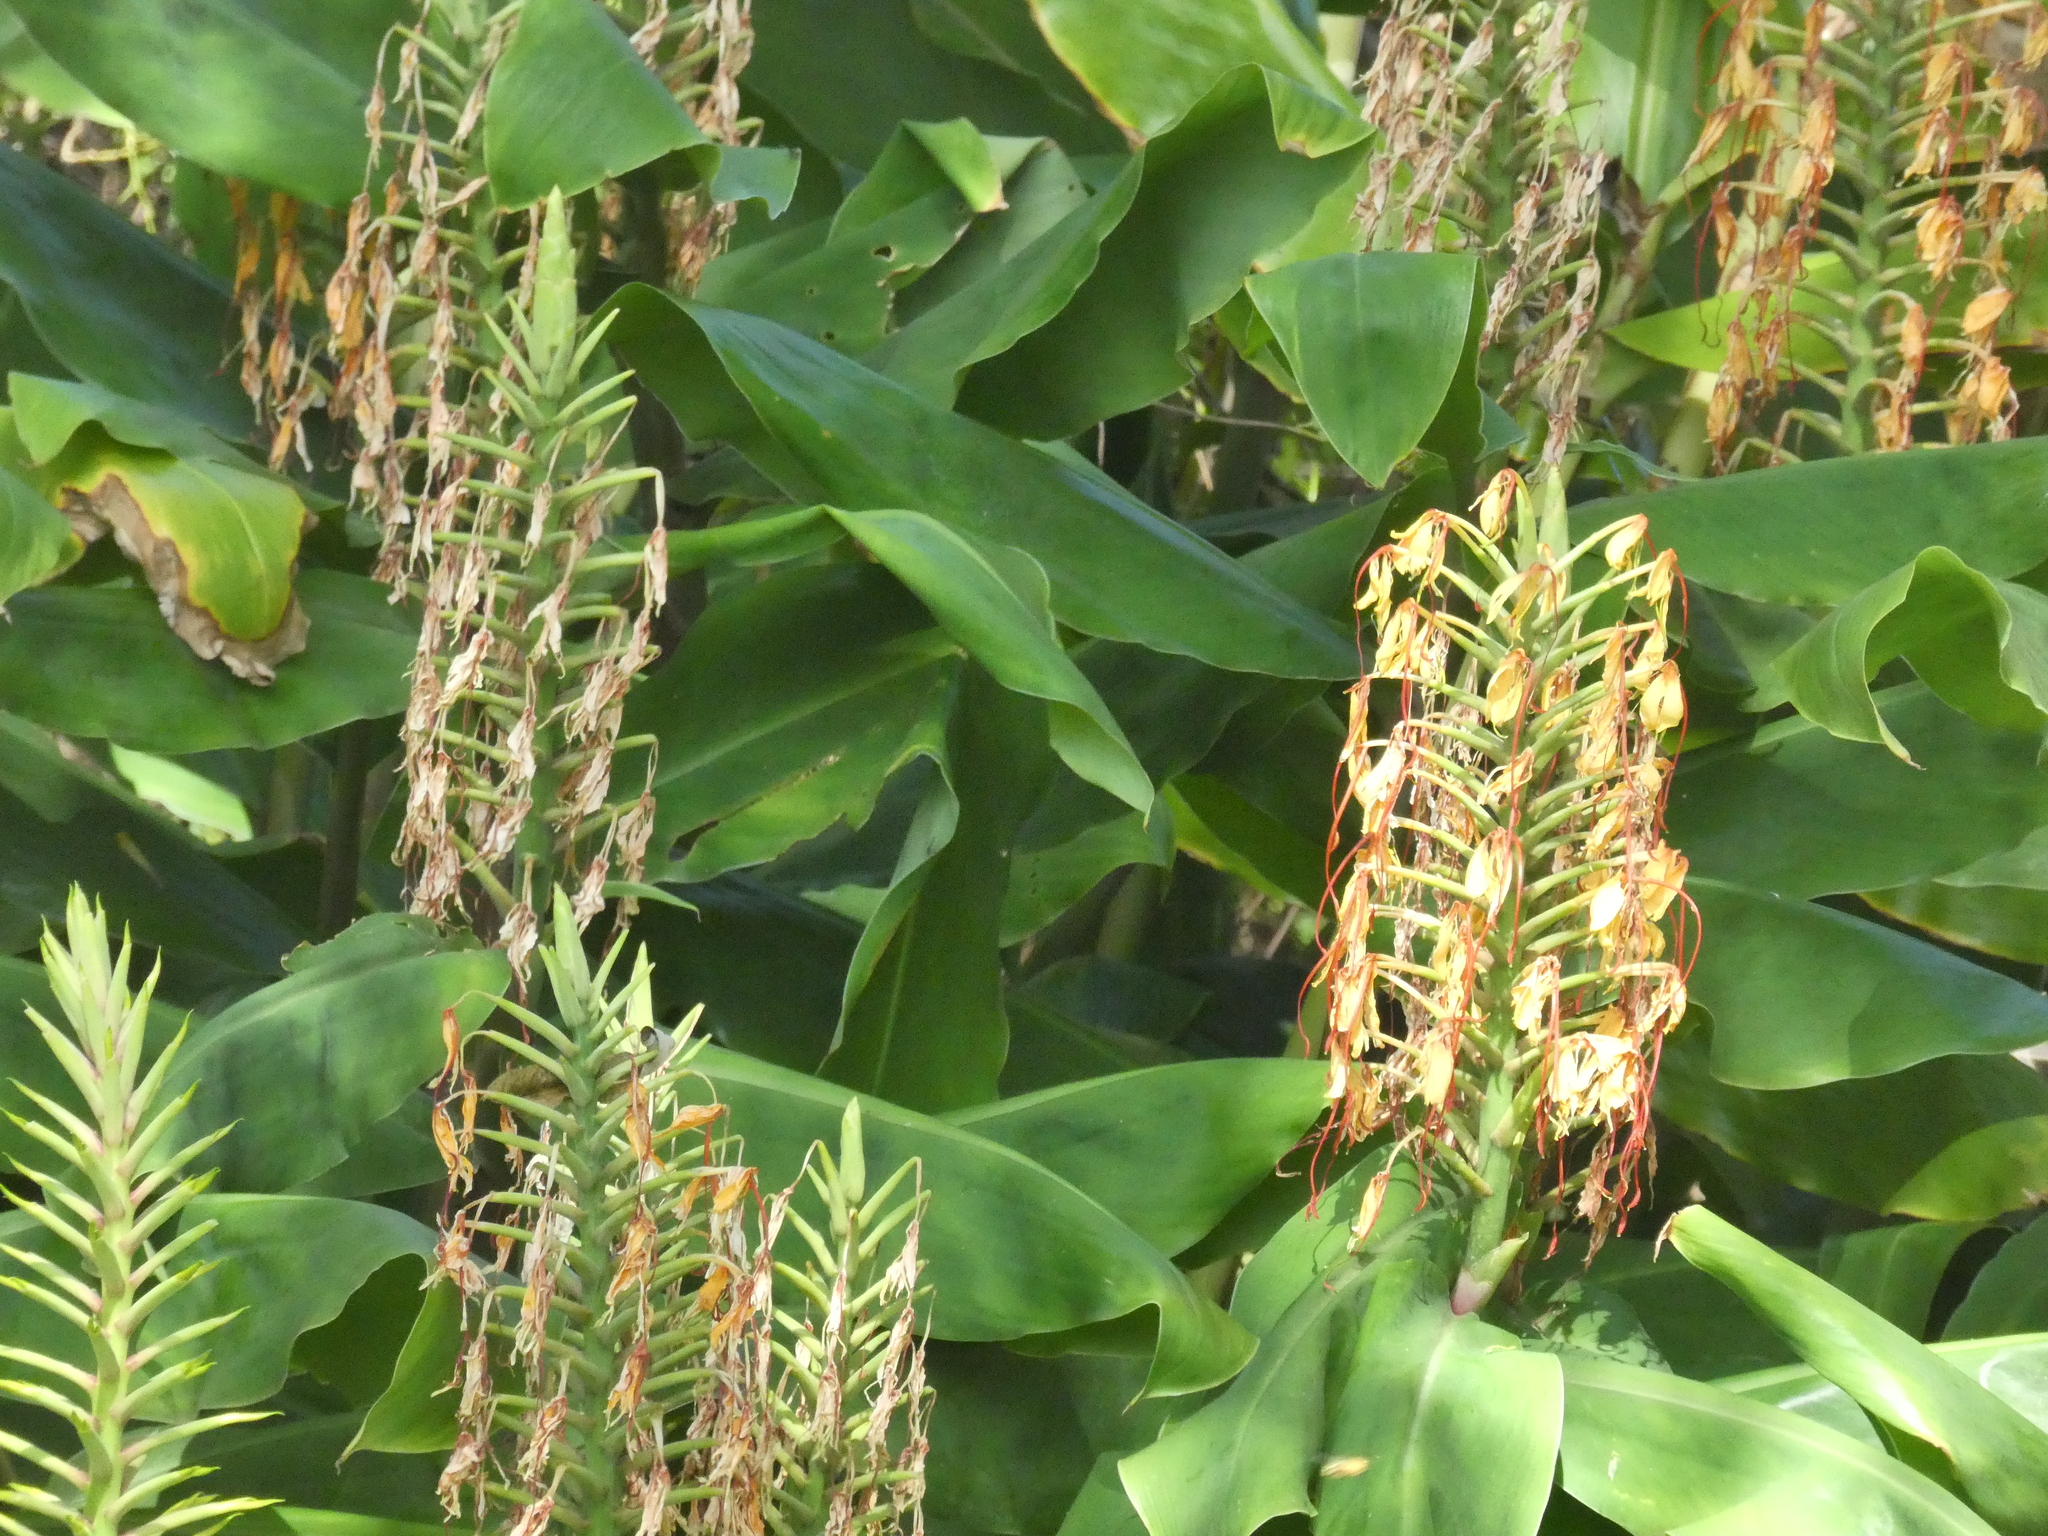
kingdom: Plantae
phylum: Tracheophyta
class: Liliopsida
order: Zingiberales
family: Zingiberaceae
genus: Hedychium
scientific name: Hedychium gardnerianum
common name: Himalayan ginger
